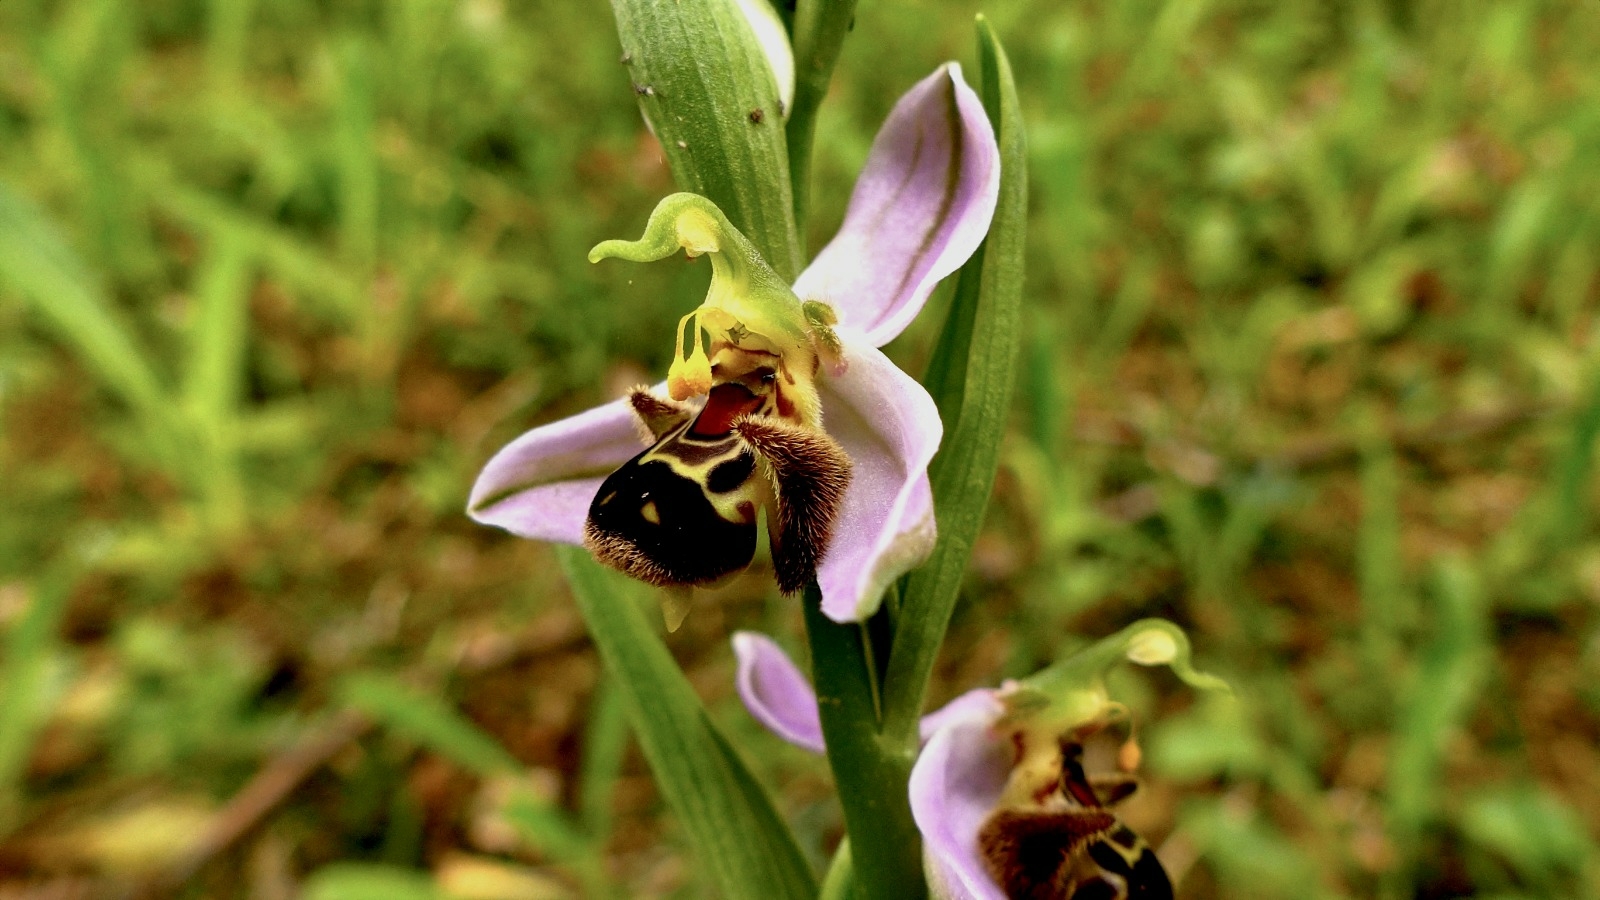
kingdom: Plantae
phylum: Tracheophyta
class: Liliopsida
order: Asparagales
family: Orchidaceae
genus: Ophrys
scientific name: Ophrys apifera
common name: Bee orchid
